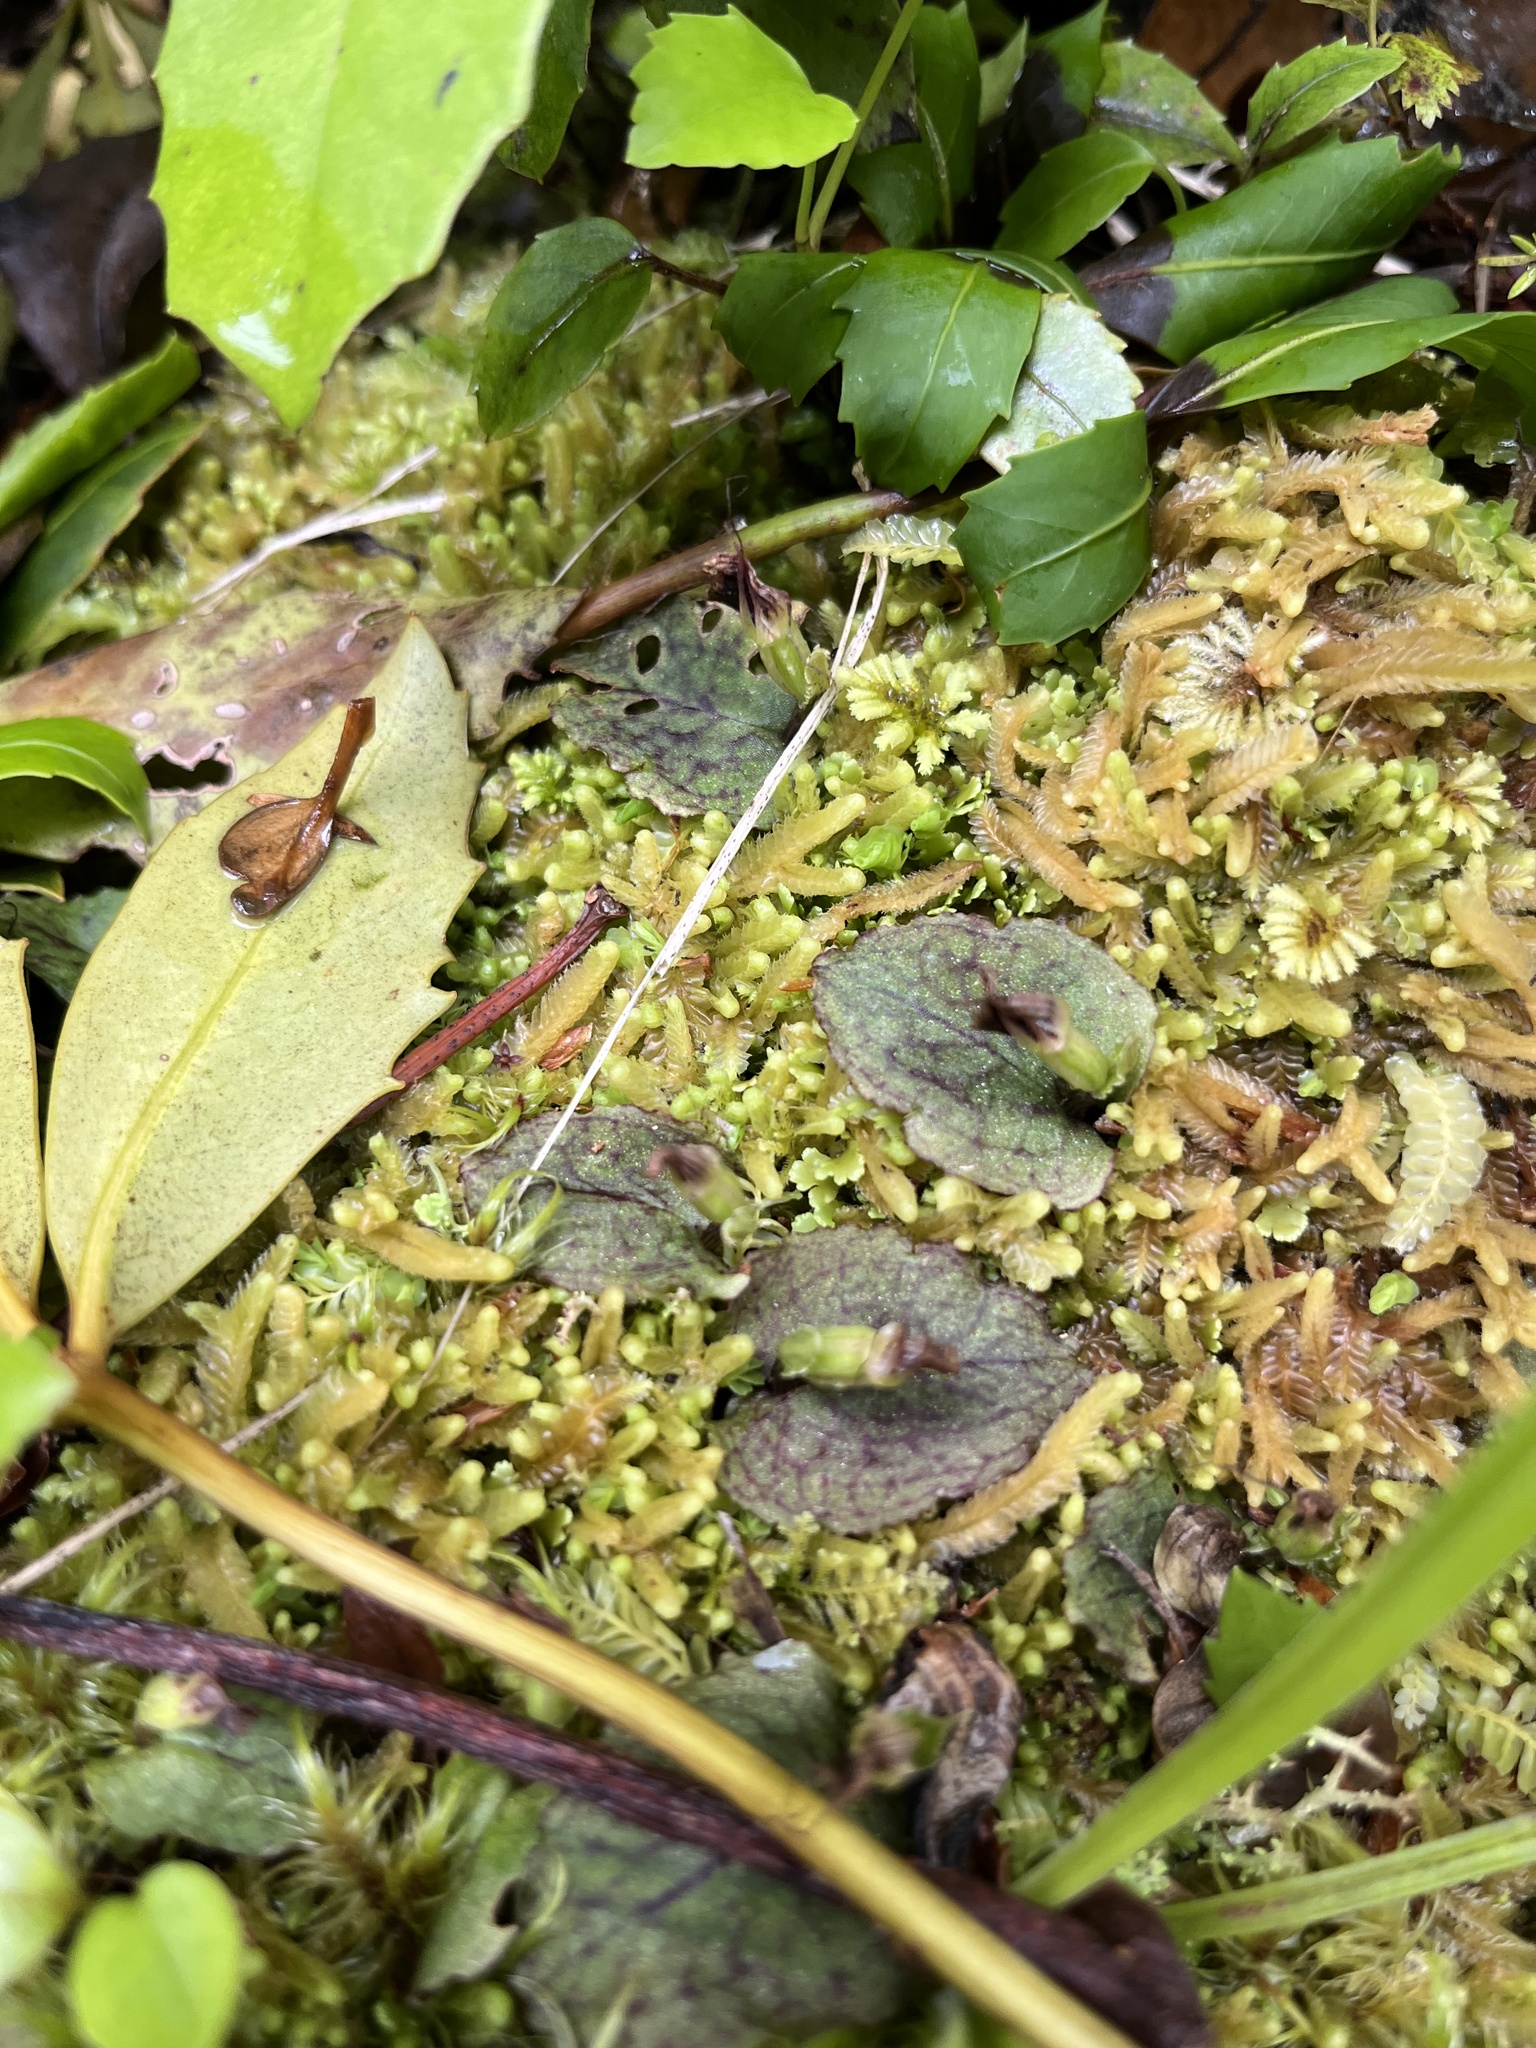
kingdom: Plantae
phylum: Tracheophyta
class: Liliopsida
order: Asparagales
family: Orchidaceae
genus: Corybas
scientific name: Corybas oblongus
